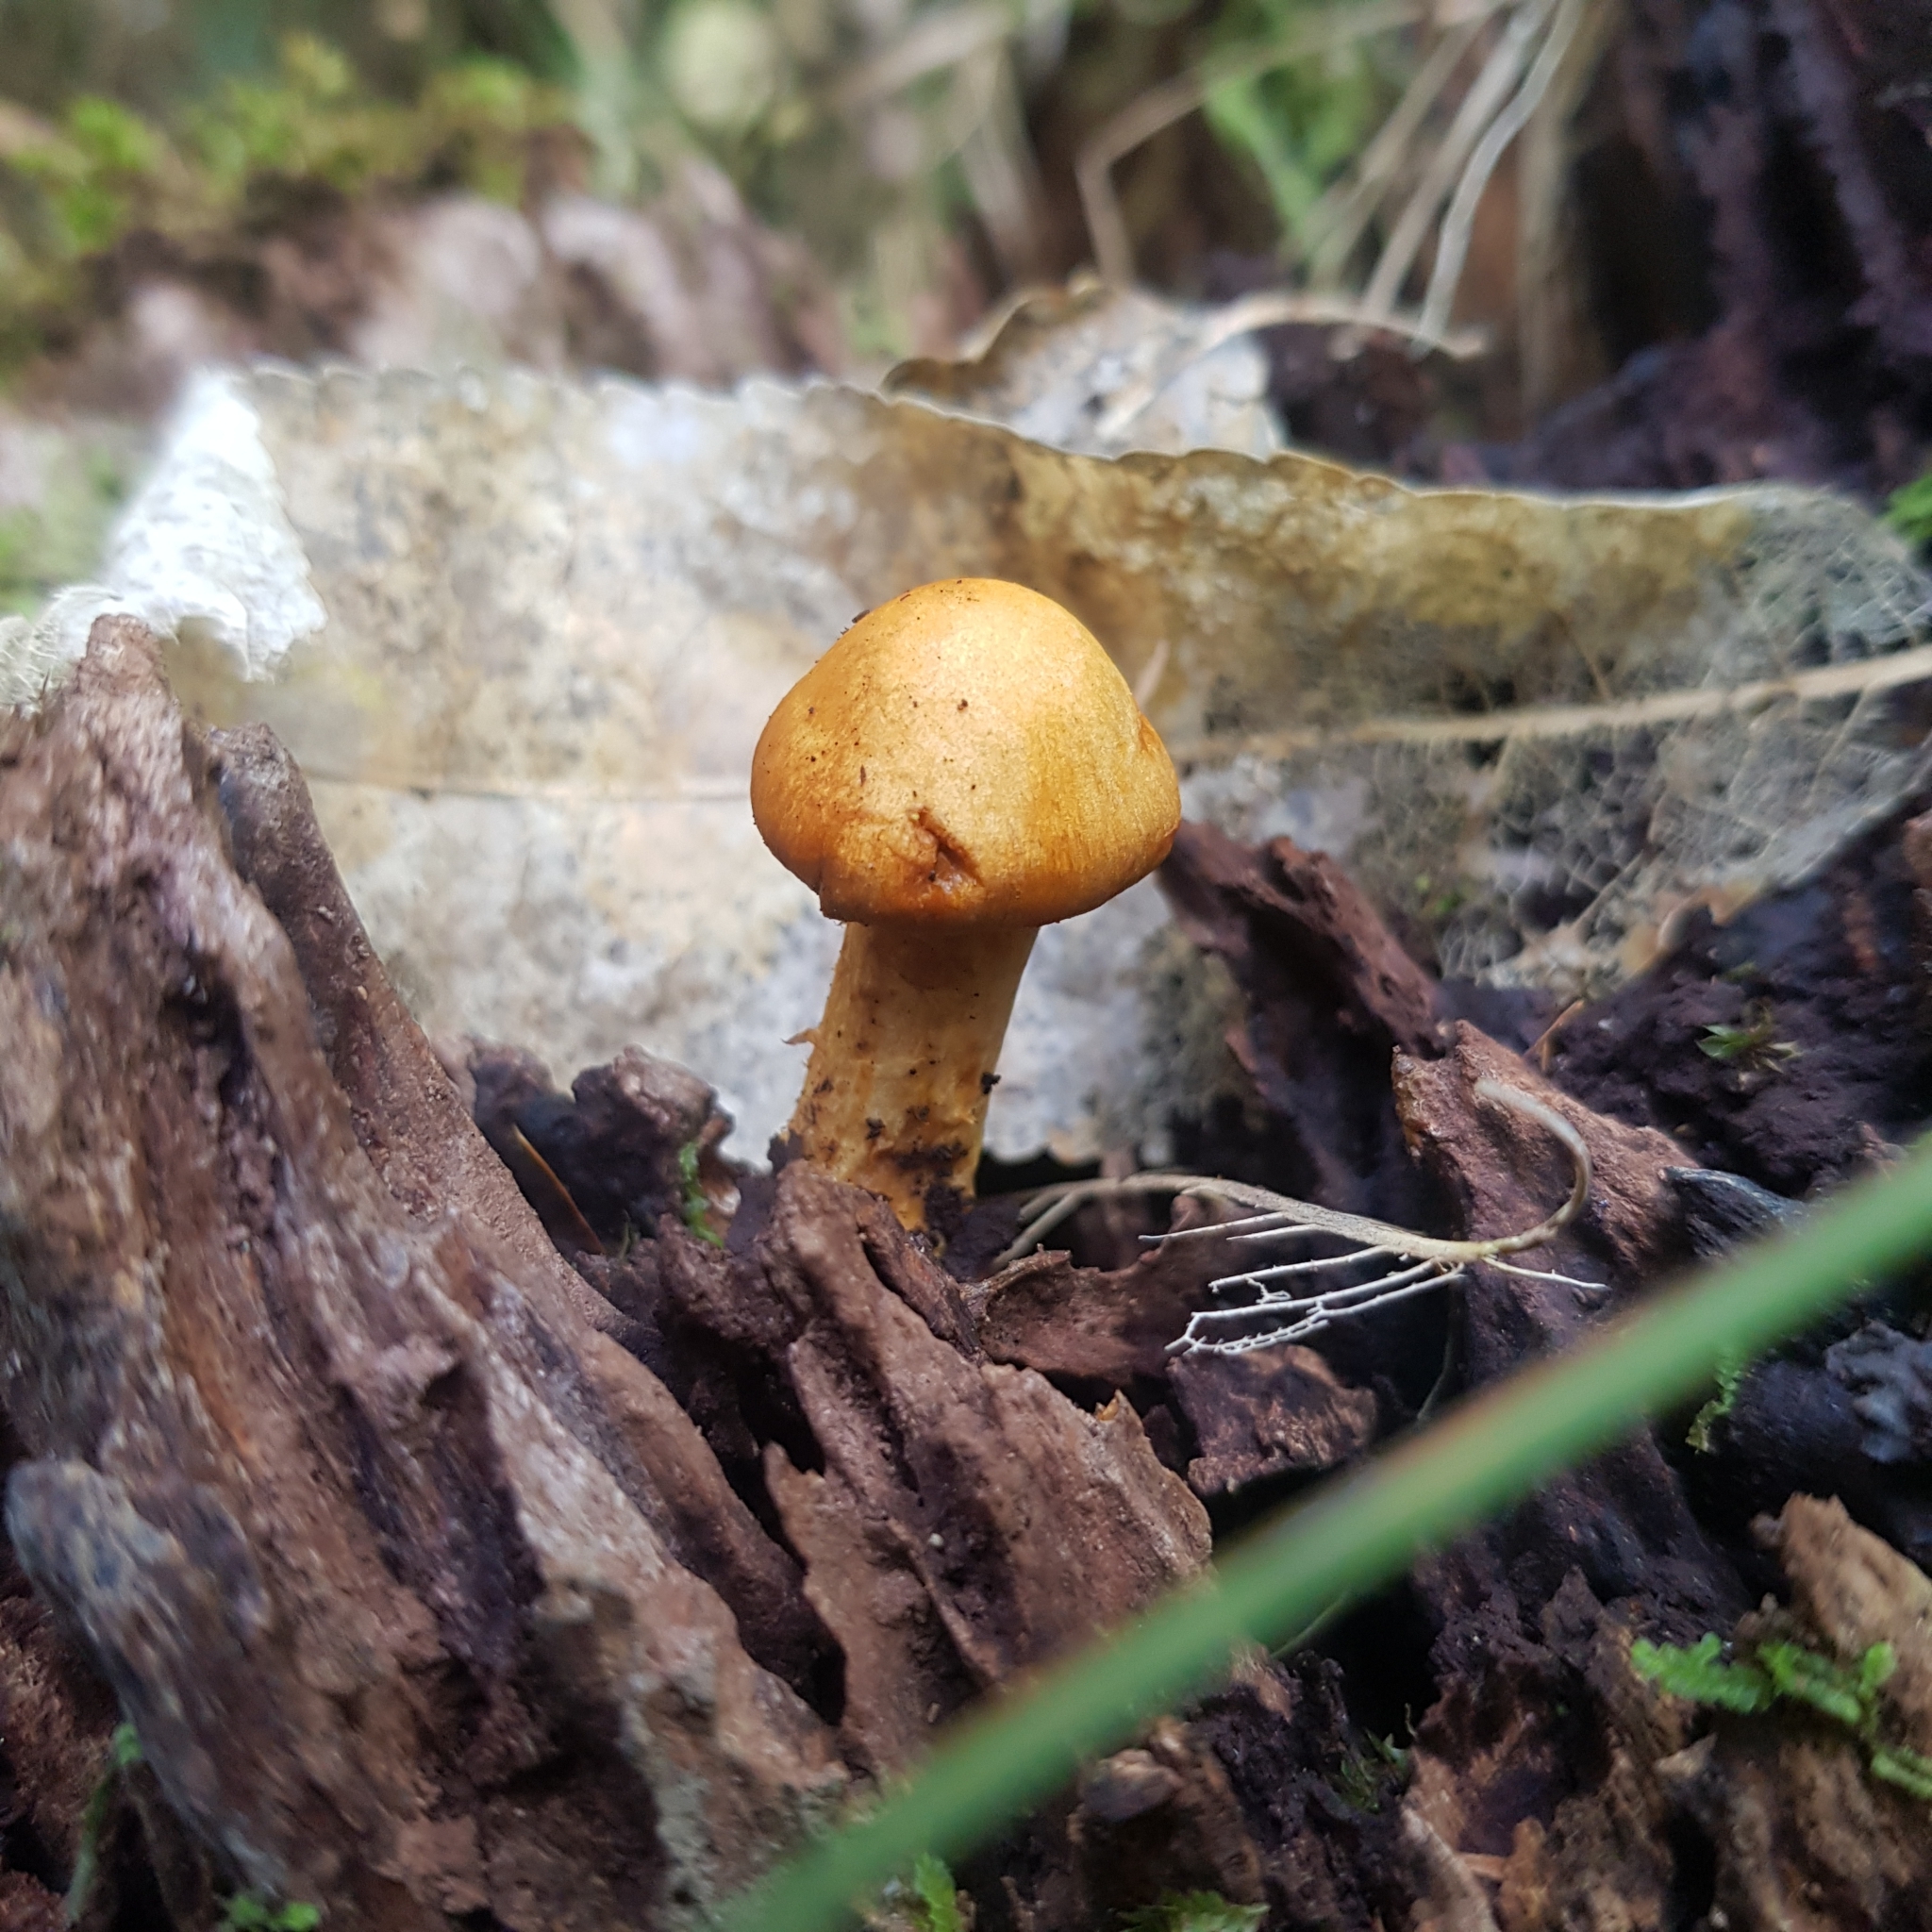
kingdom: Fungi
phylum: Basidiomycota
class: Agaricomycetes
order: Agaricales
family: Hymenogastraceae
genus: Gymnopilus
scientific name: Gymnopilus junonius
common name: Spectacular rustgill
